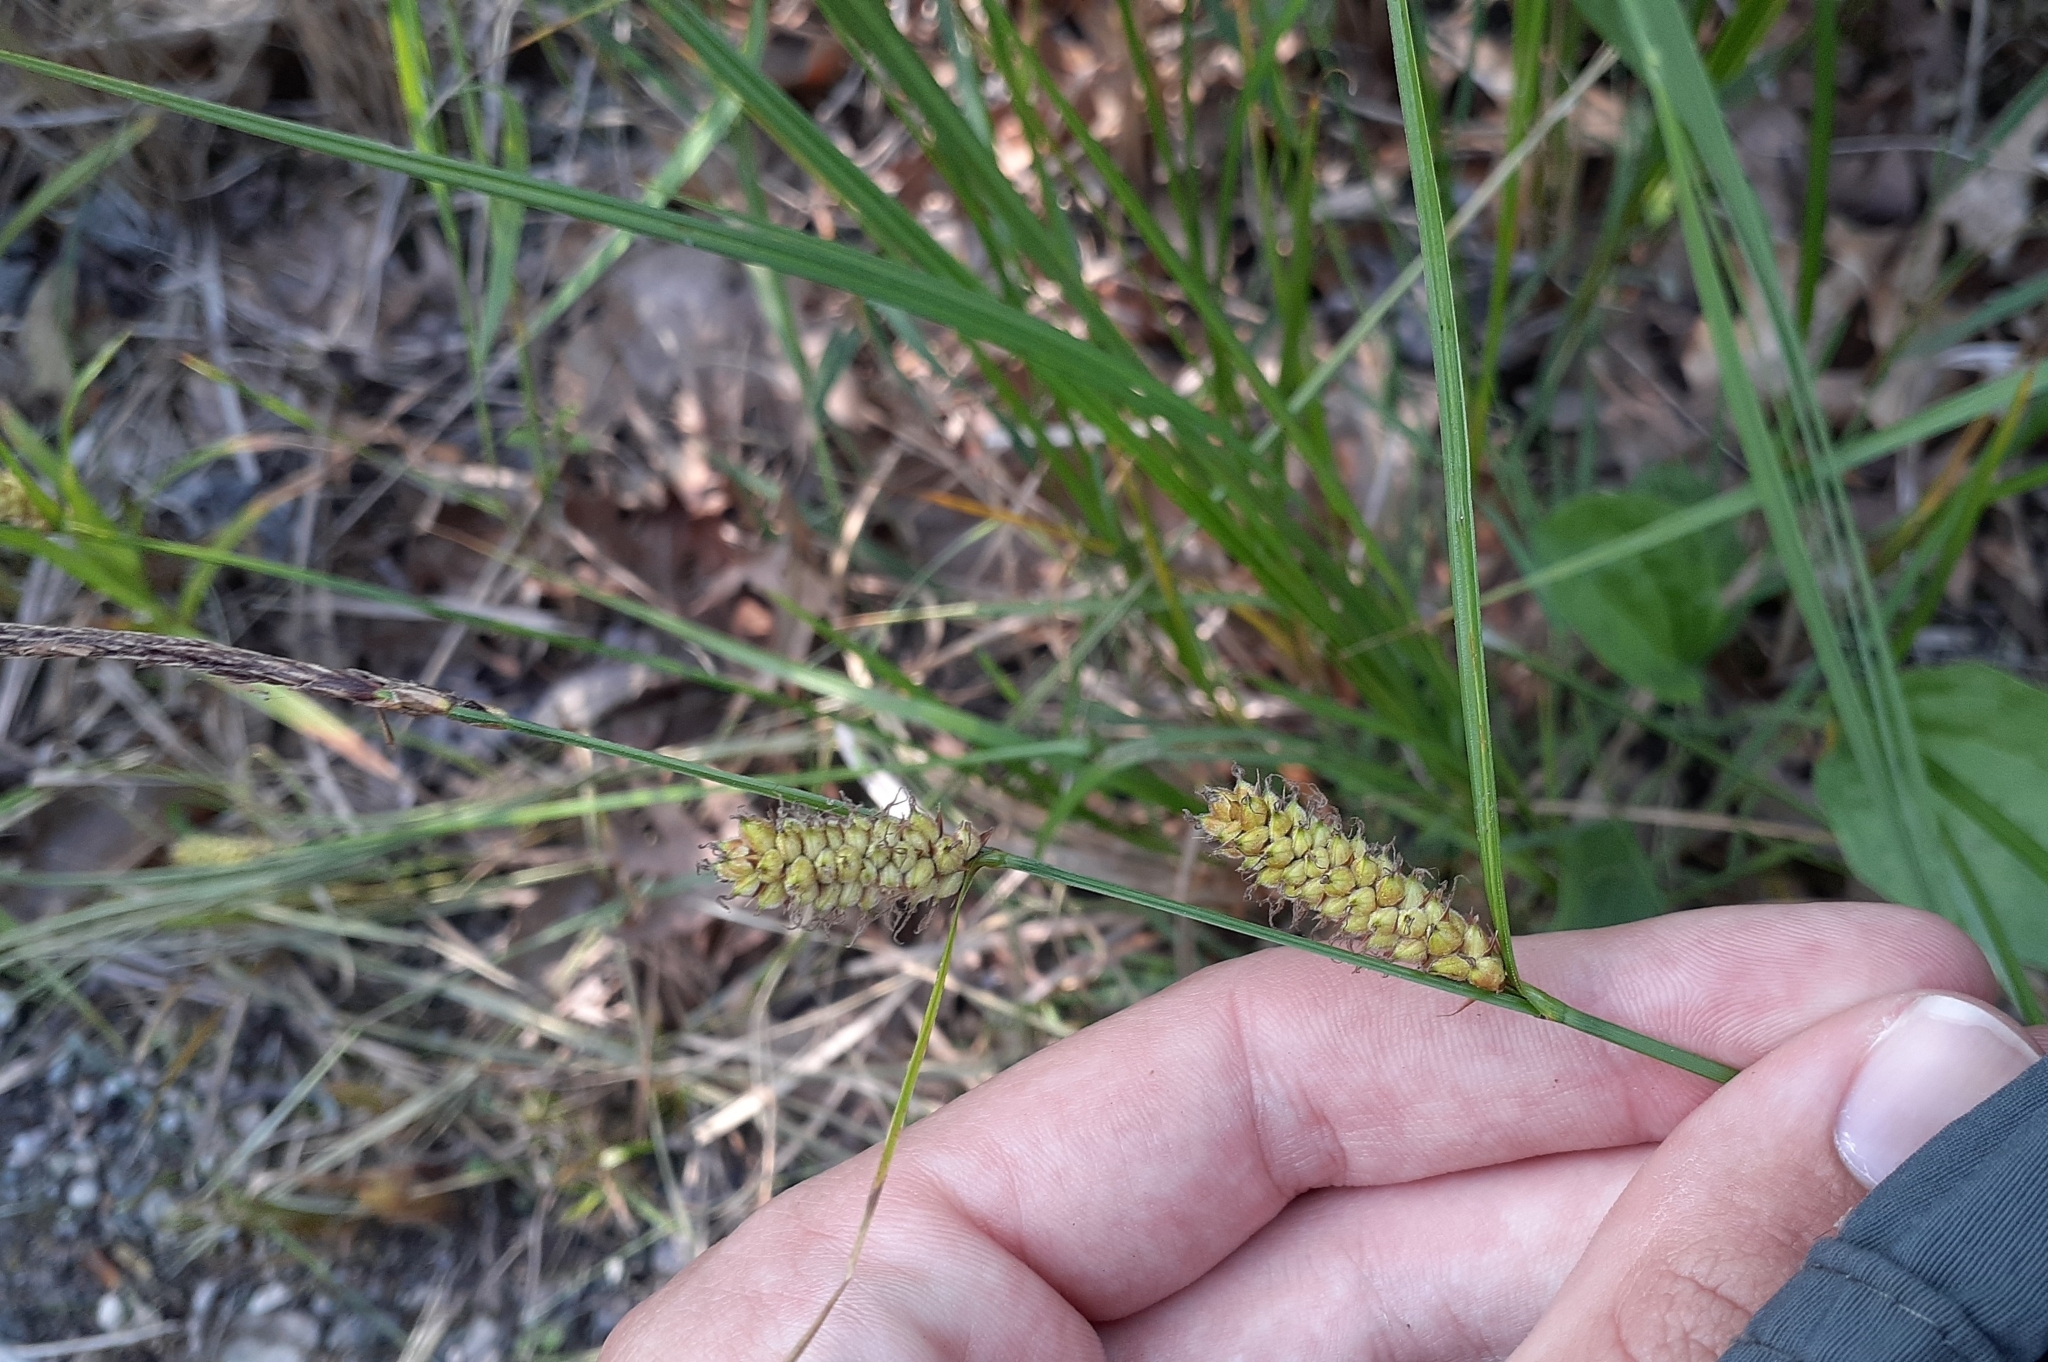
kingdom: Plantae
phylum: Tracheophyta
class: Liliopsida
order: Poales
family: Cyperaceae
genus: Carex
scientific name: Carex pellita
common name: Woolly sedge
